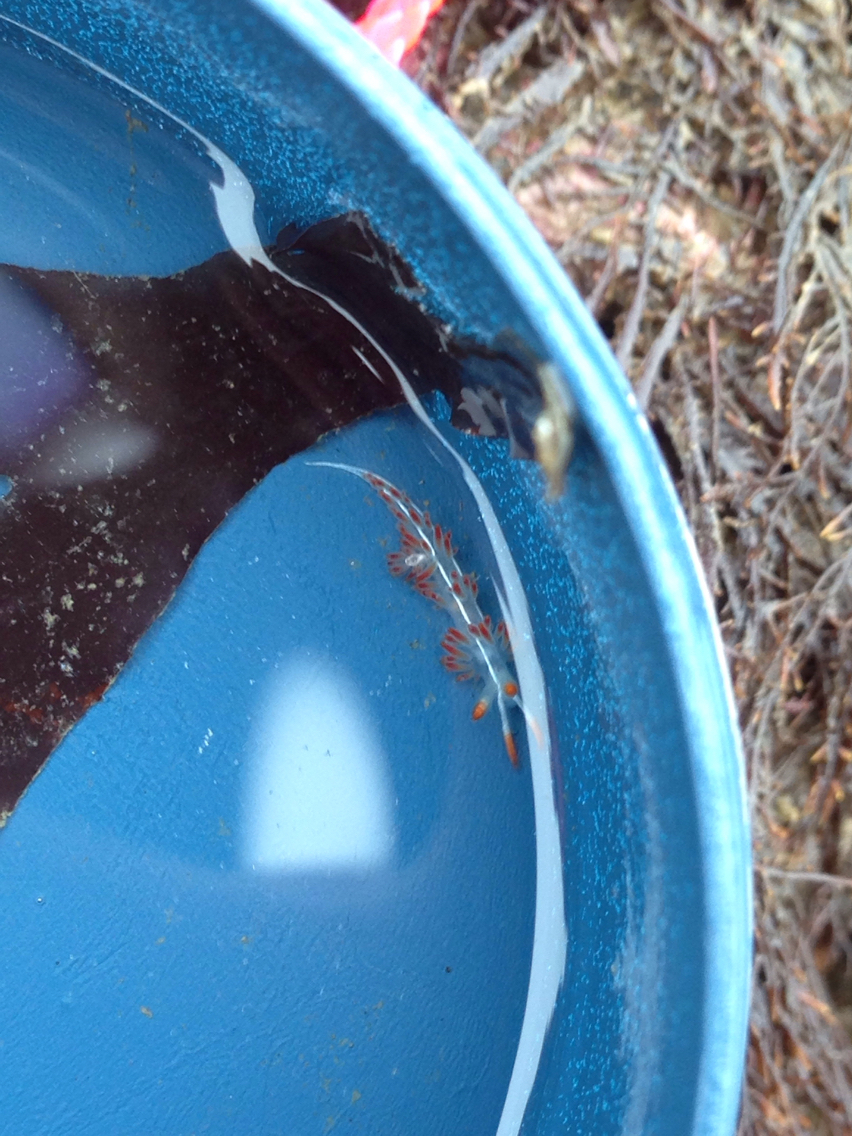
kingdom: Animalia
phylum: Mollusca
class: Gastropoda
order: Nudibranchia
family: Coryphellidae
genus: Coryphella
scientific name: Coryphella trilineata
